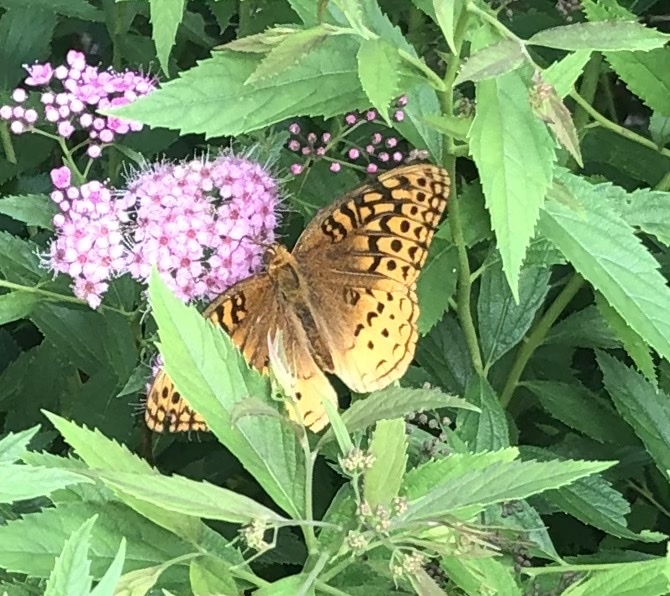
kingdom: Animalia
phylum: Arthropoda
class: Insecta
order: Lepidoptera
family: Nymphalidae
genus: Speyeria
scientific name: Speyeria cybele
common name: Great spangled fritillary
